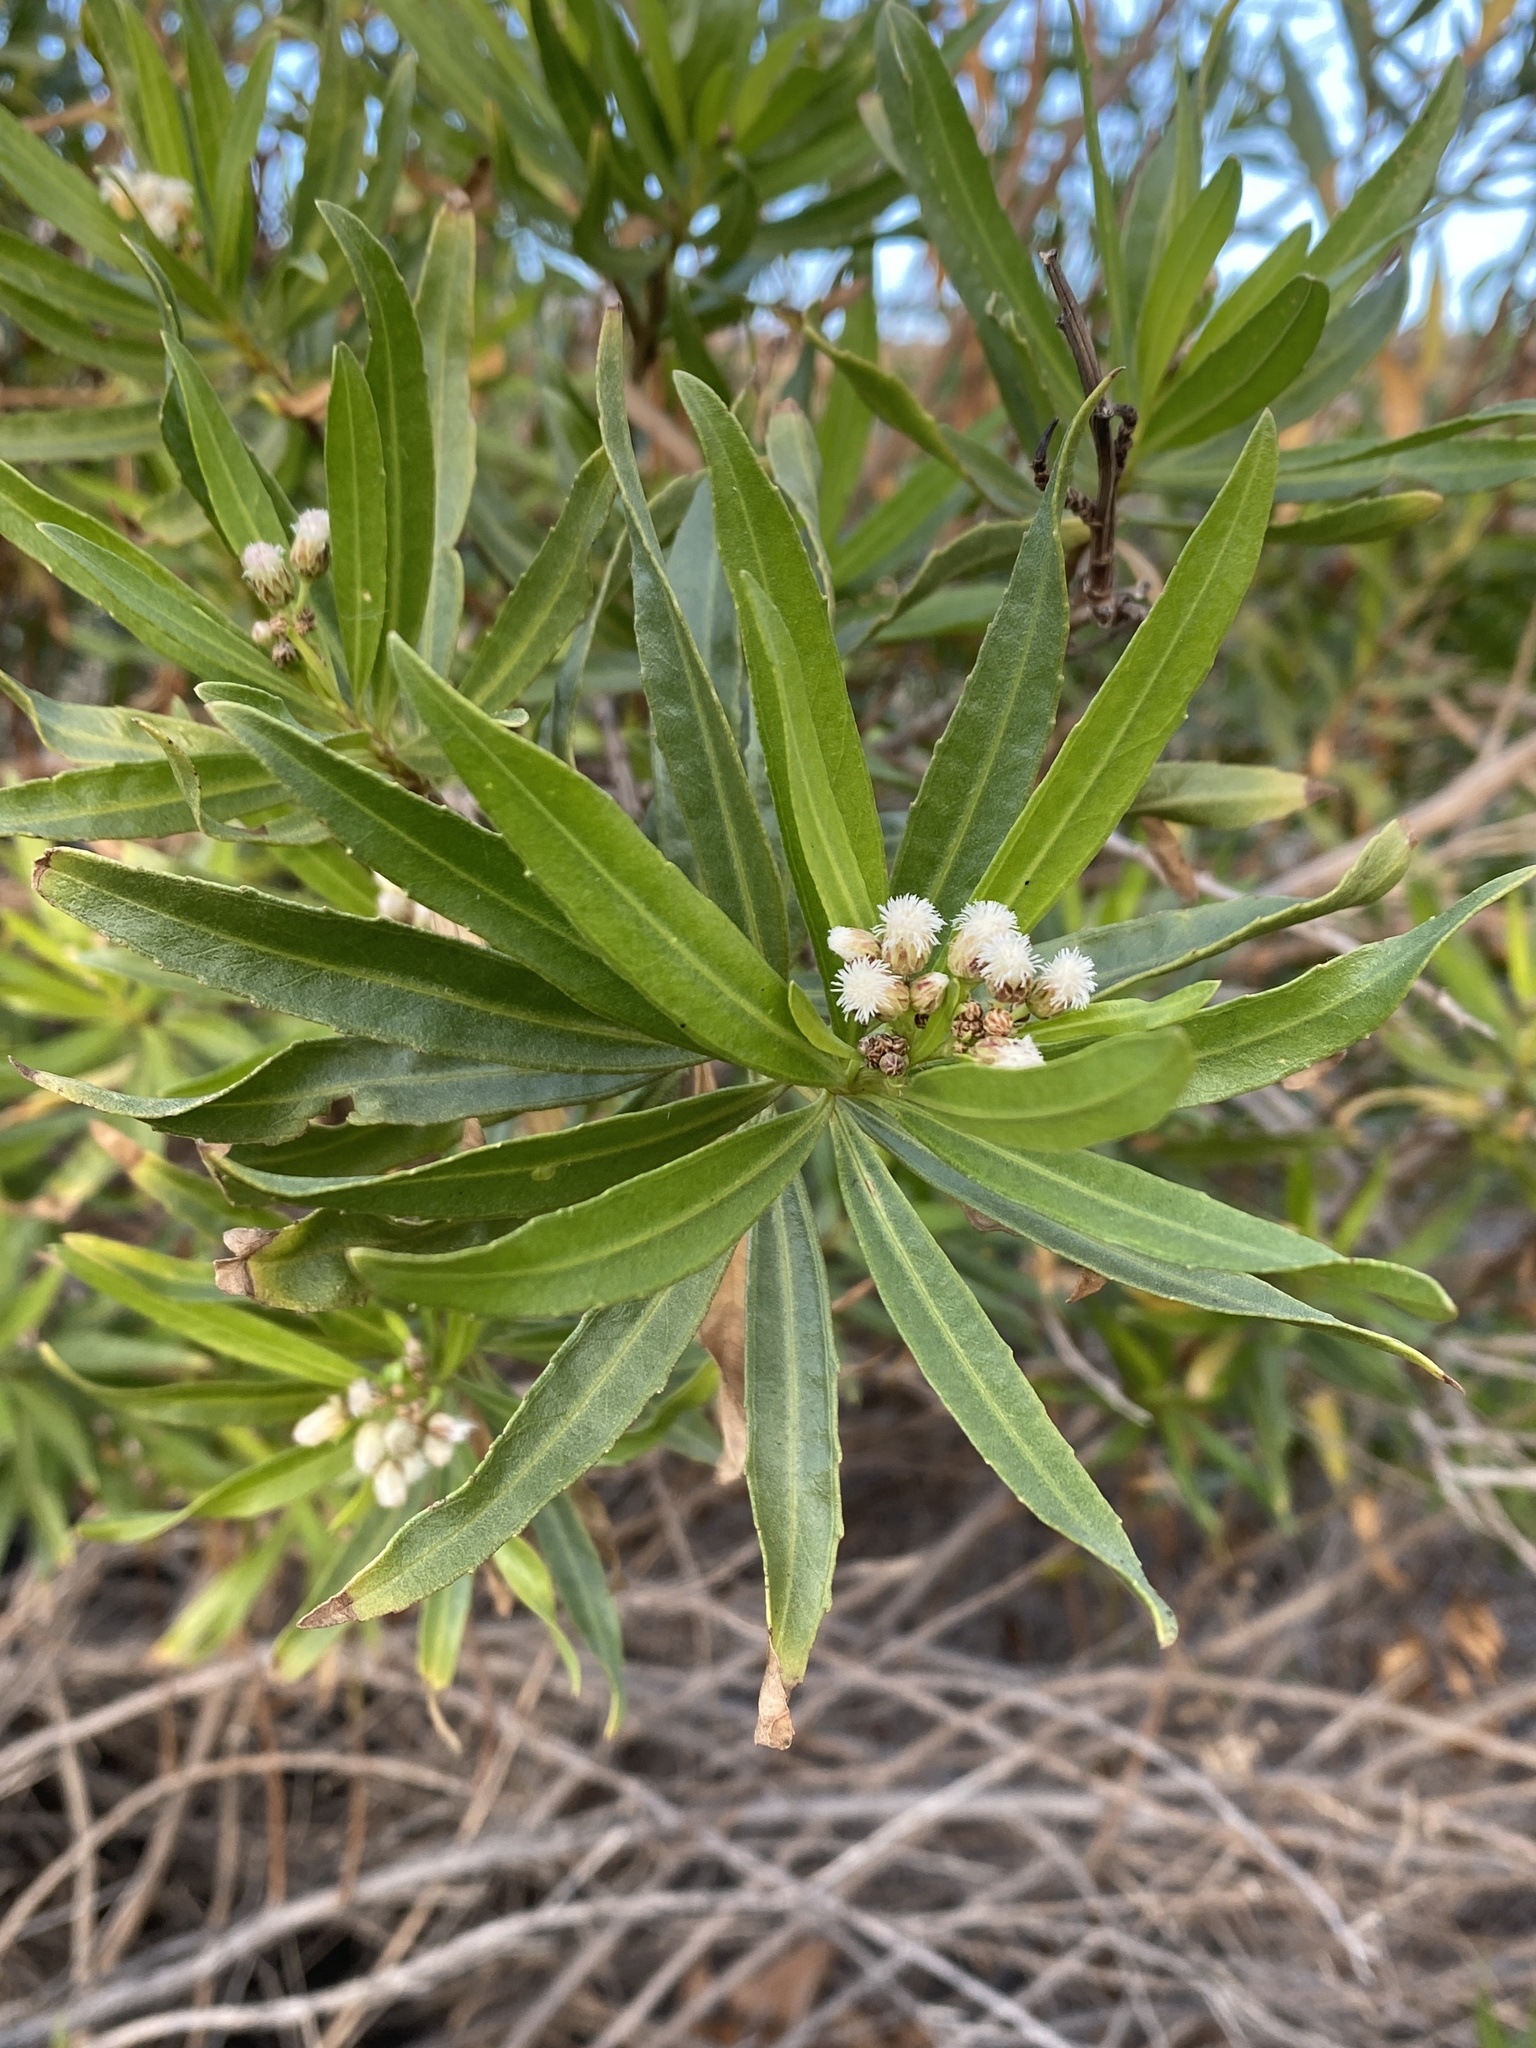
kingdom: Plantae
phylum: Tracheophyta
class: Magnoliopsida
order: Asterales
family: Asteraceae
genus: Baccharis
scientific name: Baccharis salicifolia
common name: Sticky baccharis
